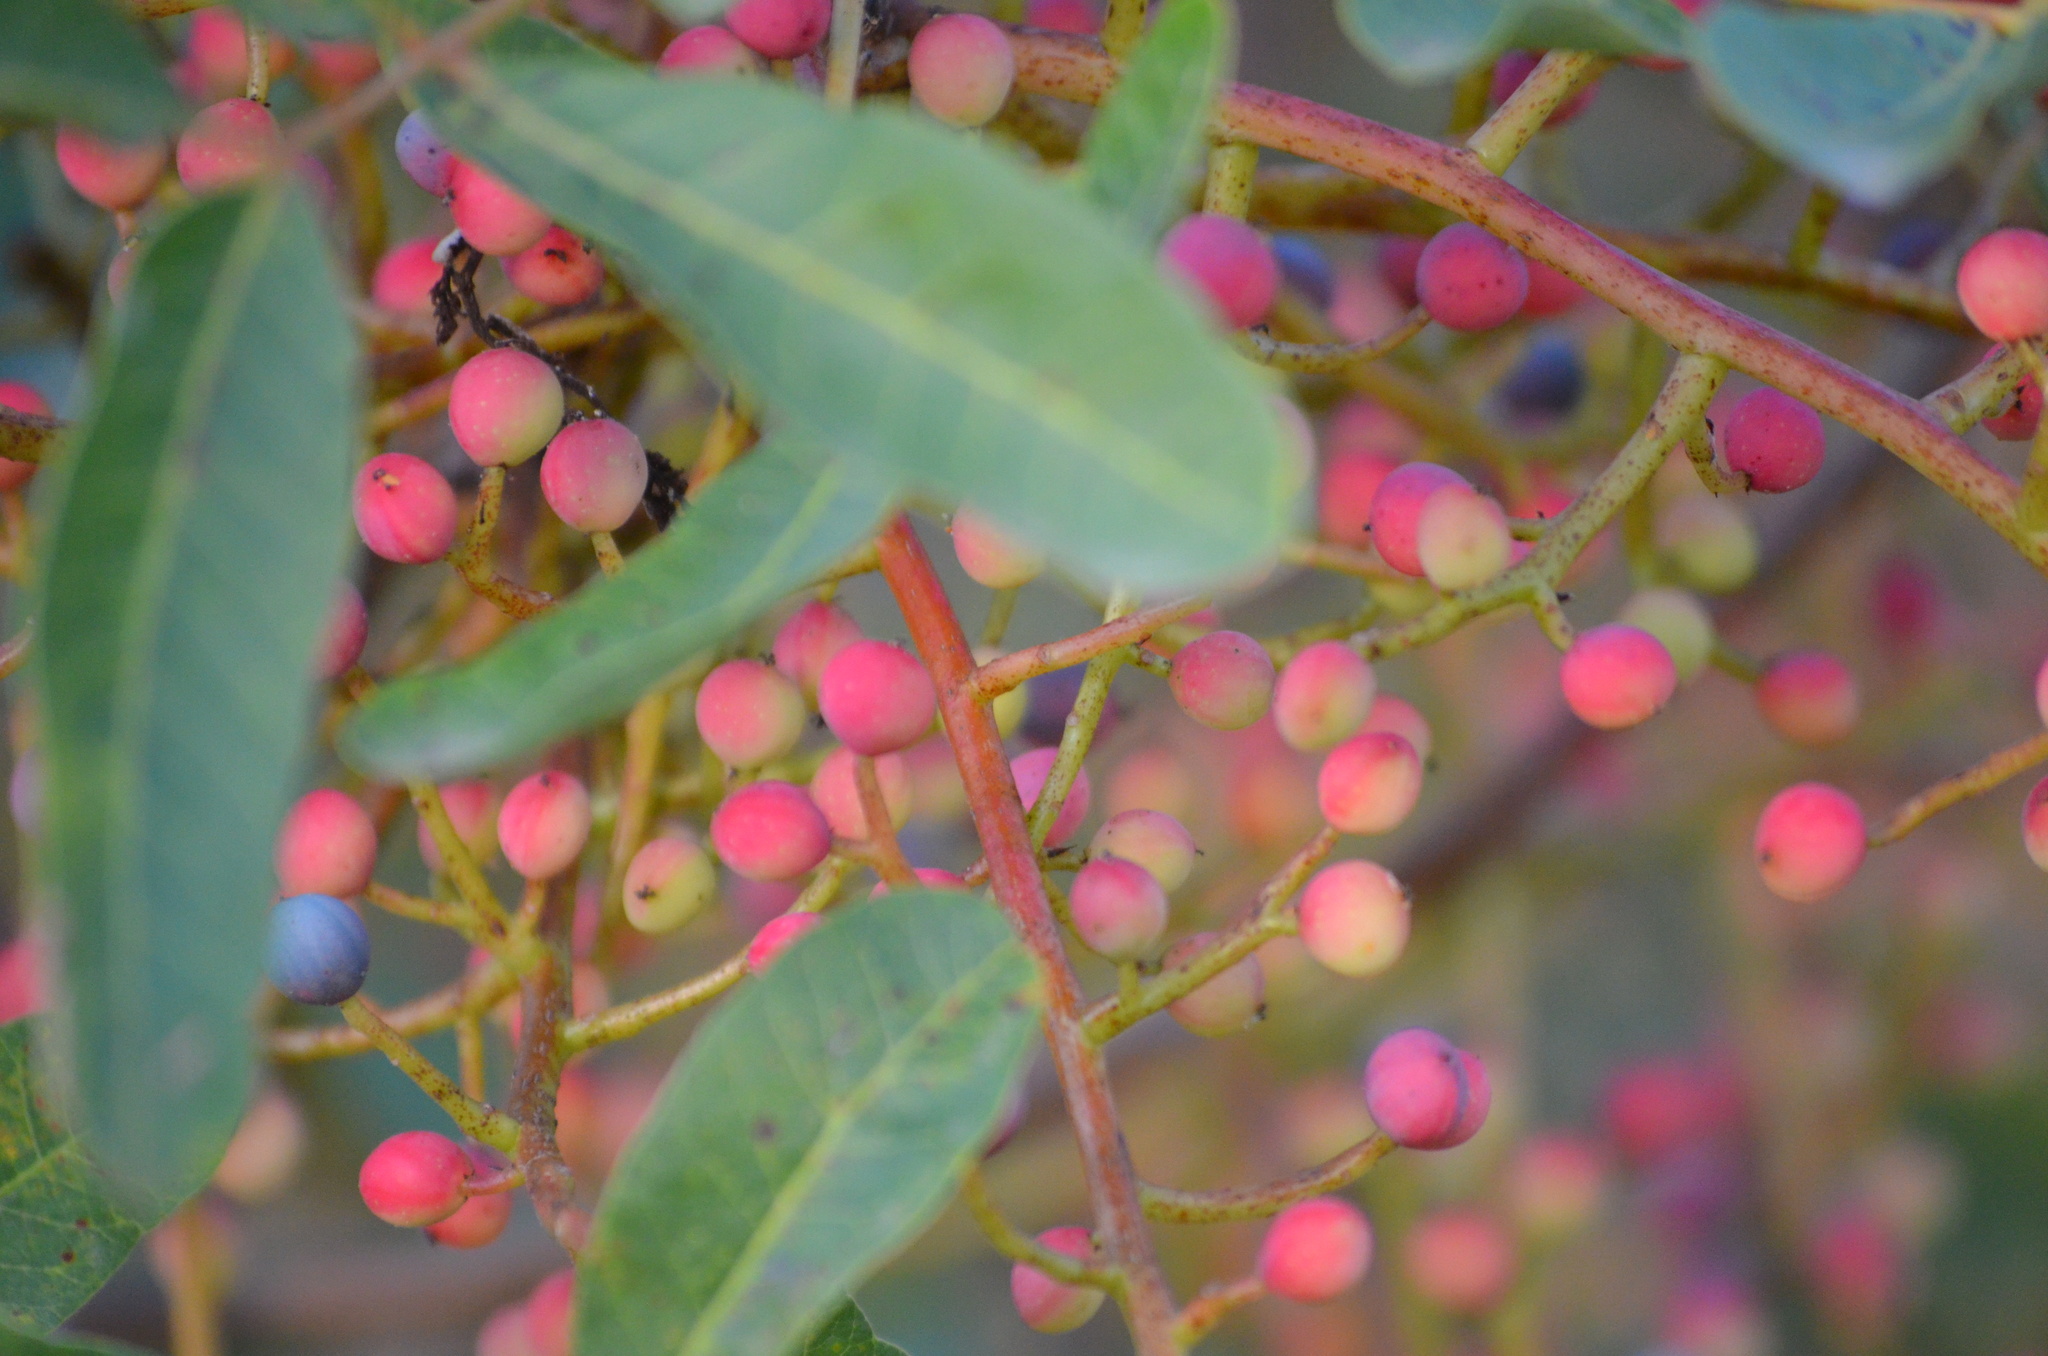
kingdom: Plantae
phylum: Tracheophyta
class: Magnoliopsida
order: Sapindales
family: Anacardiaceae
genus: Pistacia
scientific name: Pistacia terebinthus
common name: Terebinth
